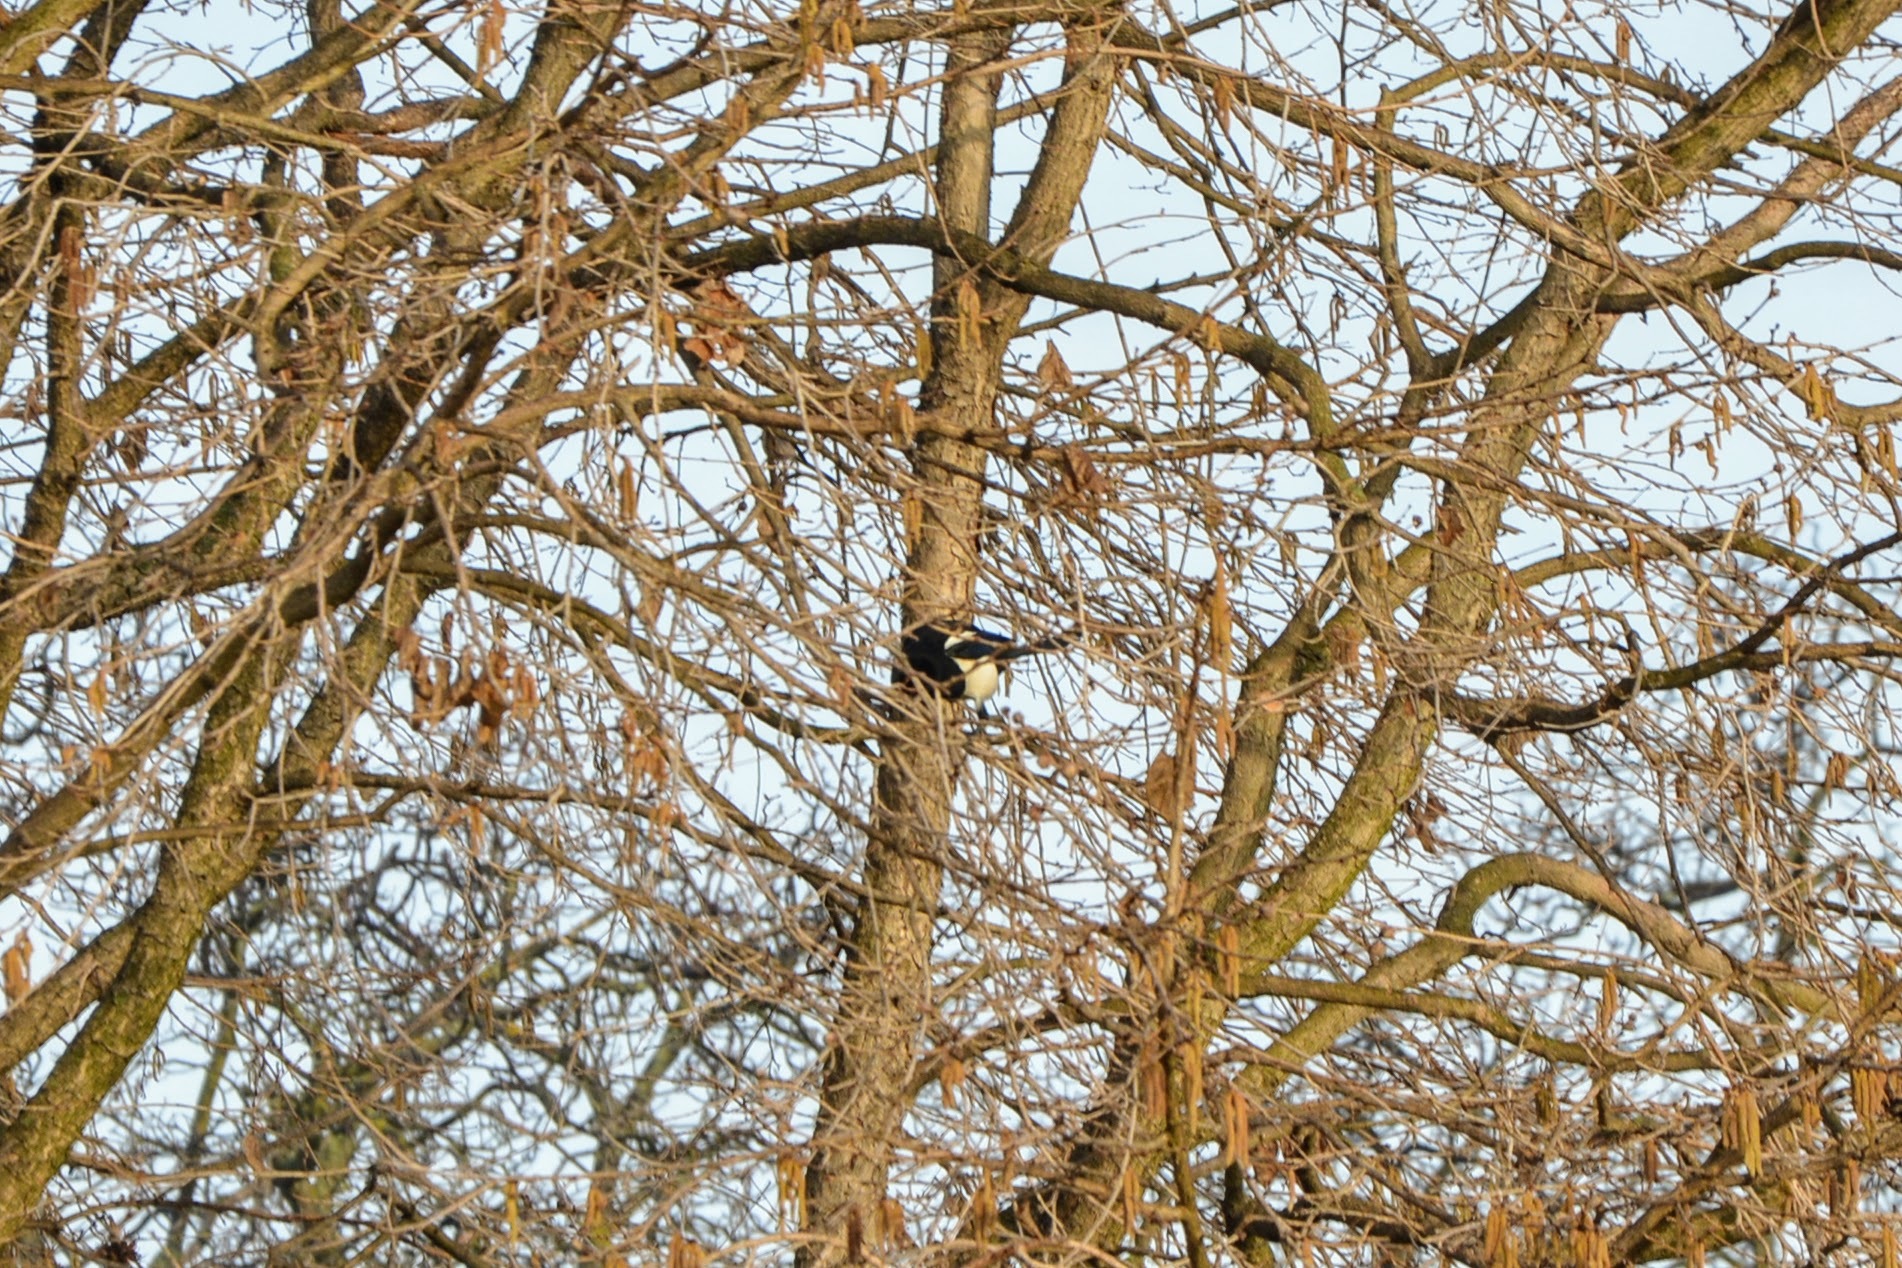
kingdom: Animalia
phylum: Chordata
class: Aves
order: Passeriformes
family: Corvidae
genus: Pica
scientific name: Pica pica
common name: Eurasian magpie
